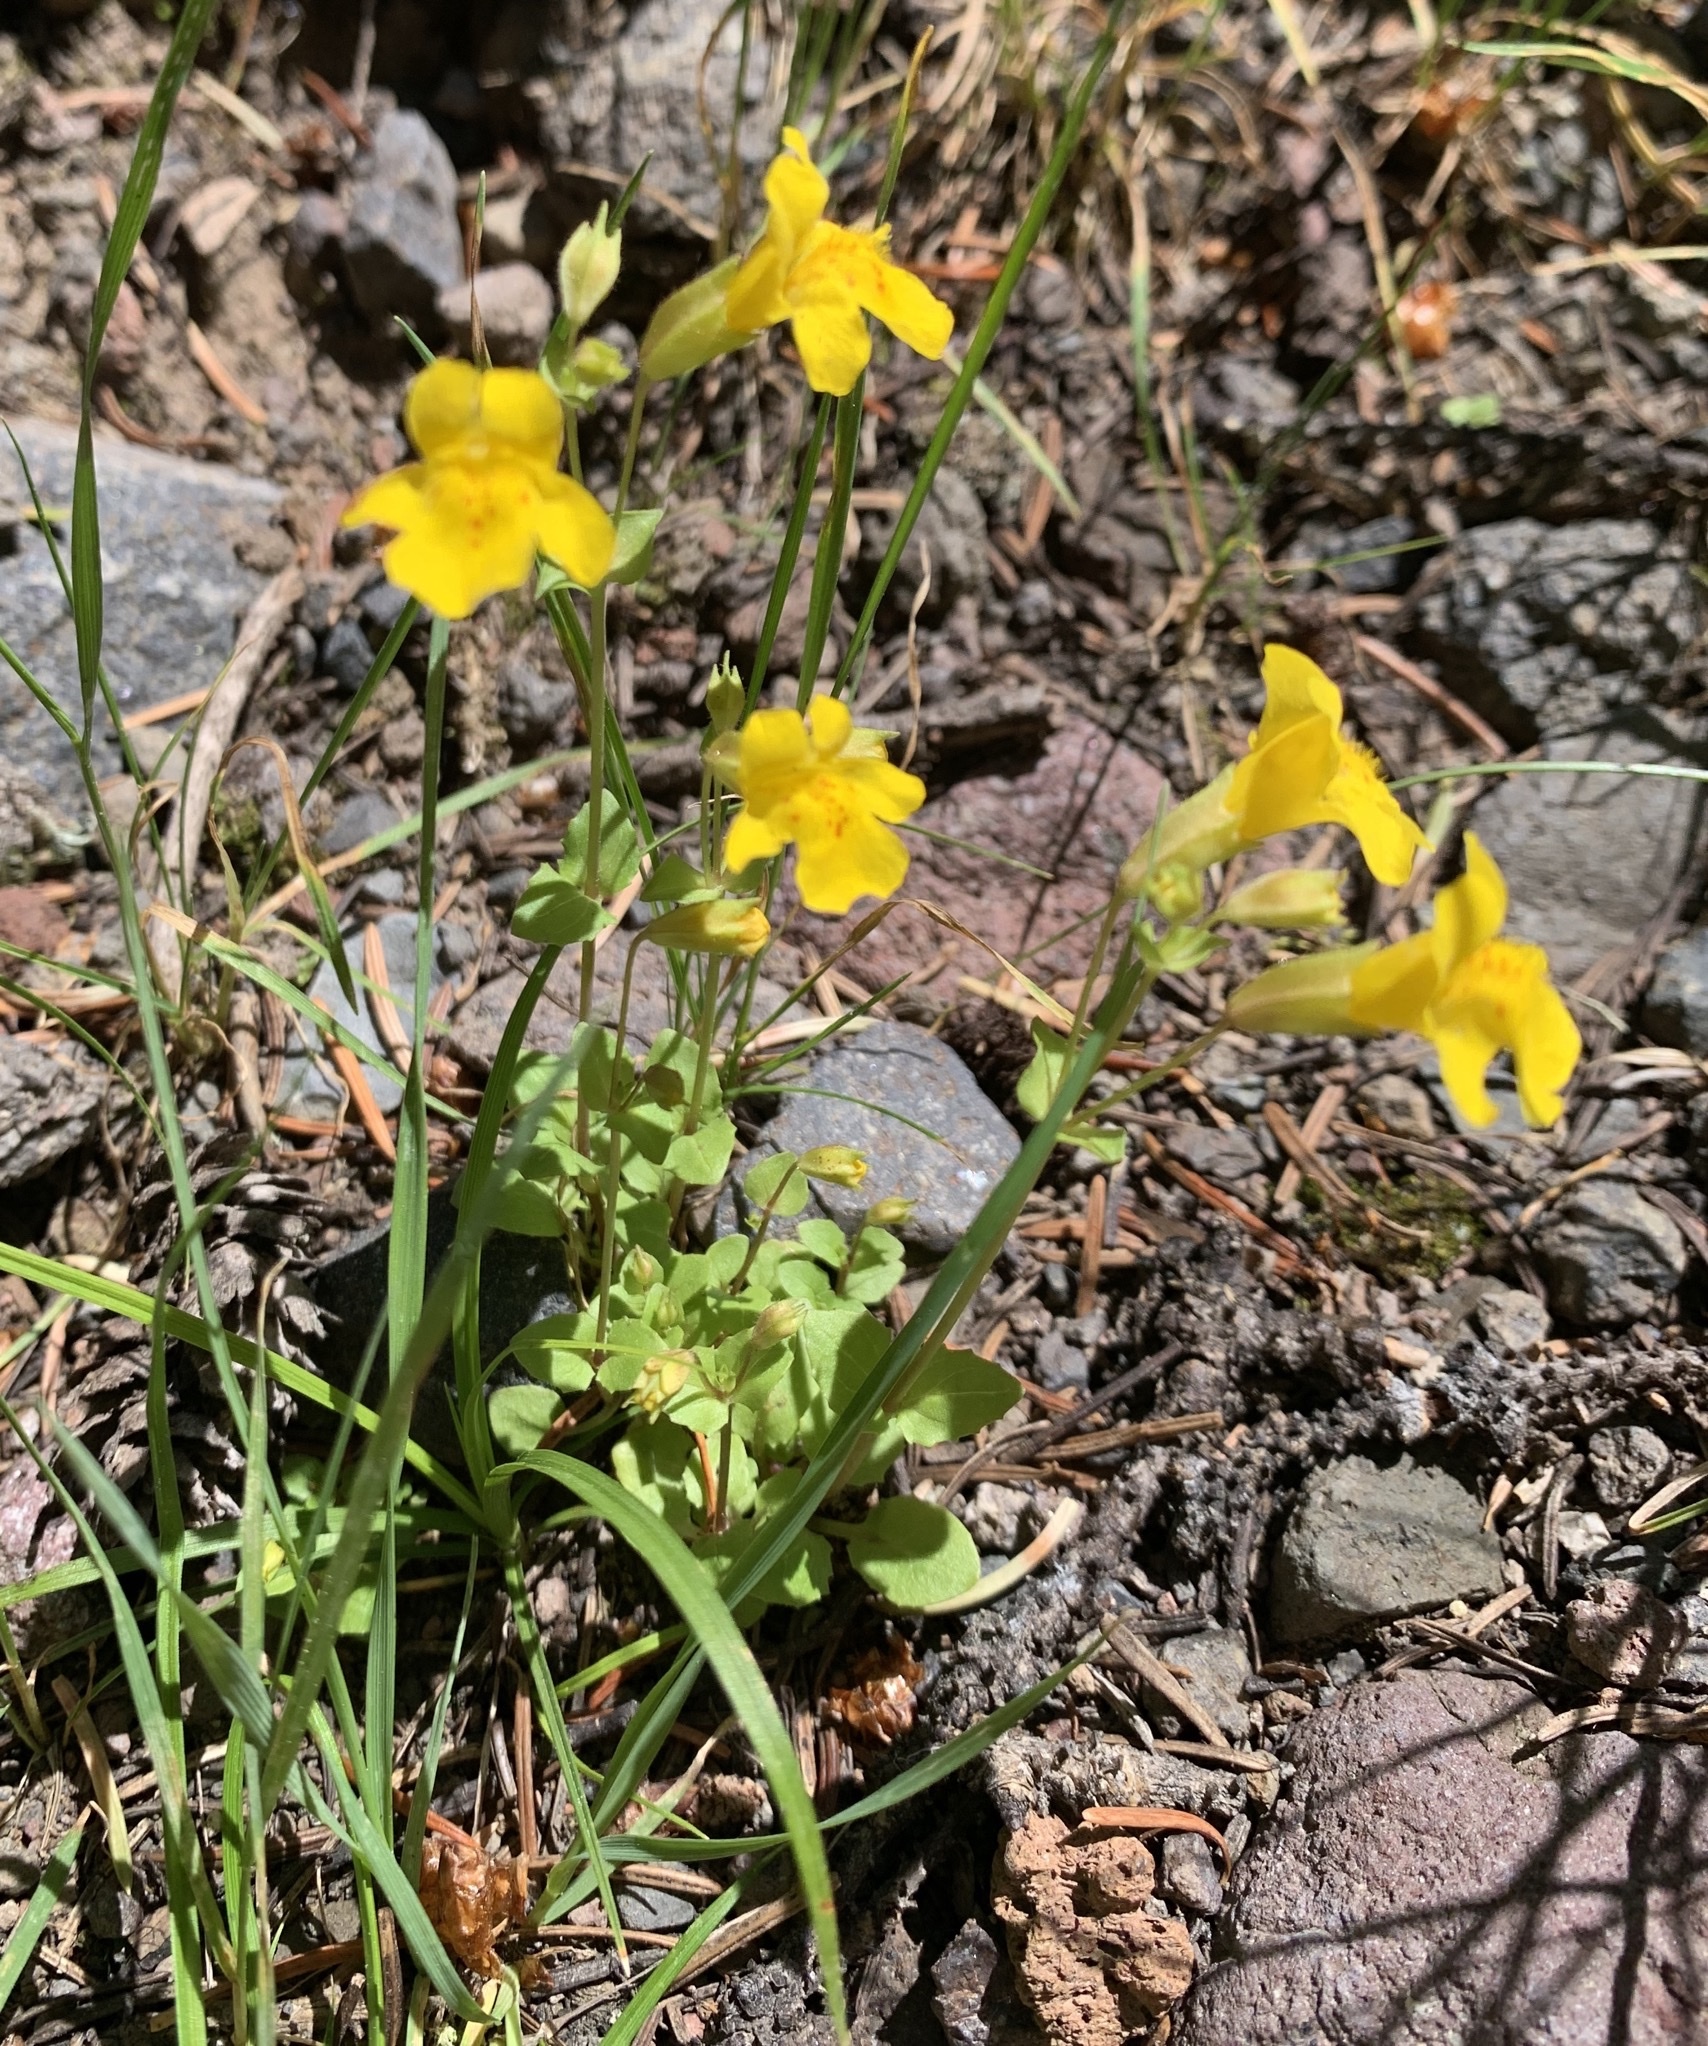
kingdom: Plantae
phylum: Tracheophyta
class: Magnoliopsida
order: Lamiales
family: Phrymaceae
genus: Erythranthe
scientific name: Erythranthe guttata
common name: Monkeyflower
